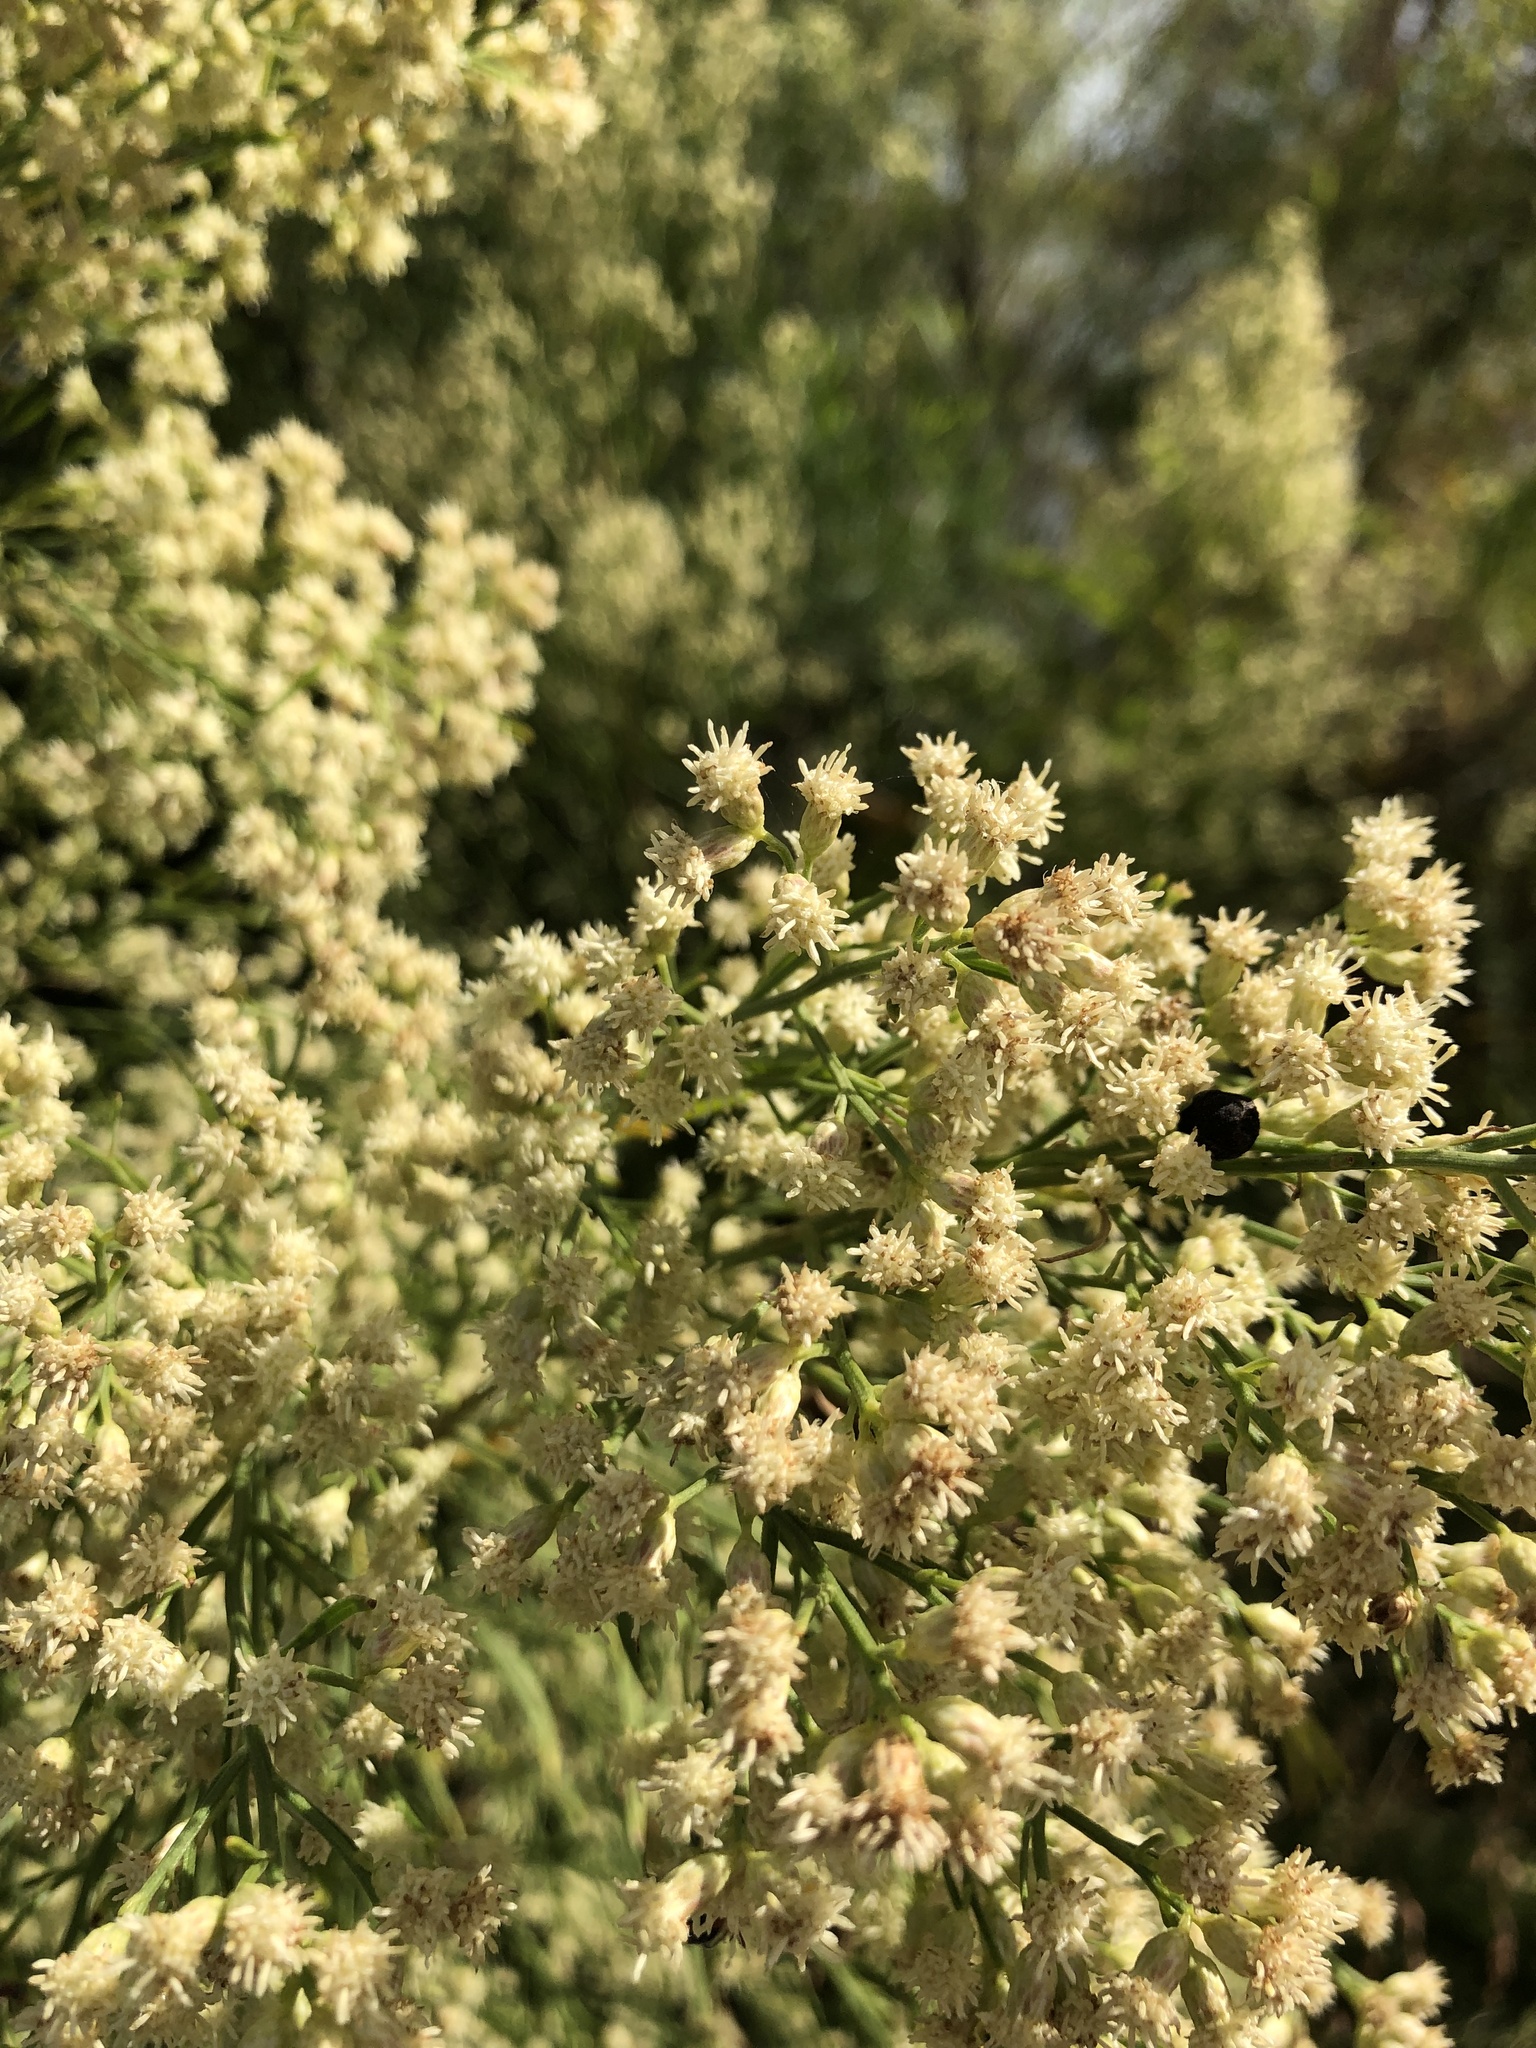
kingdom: Plantae
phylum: Tracheophyta
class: Magnoliopsida
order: Asterales
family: Asteraceae
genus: Baccharis
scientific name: Baccharis neglecta
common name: Roosevelt-weed
